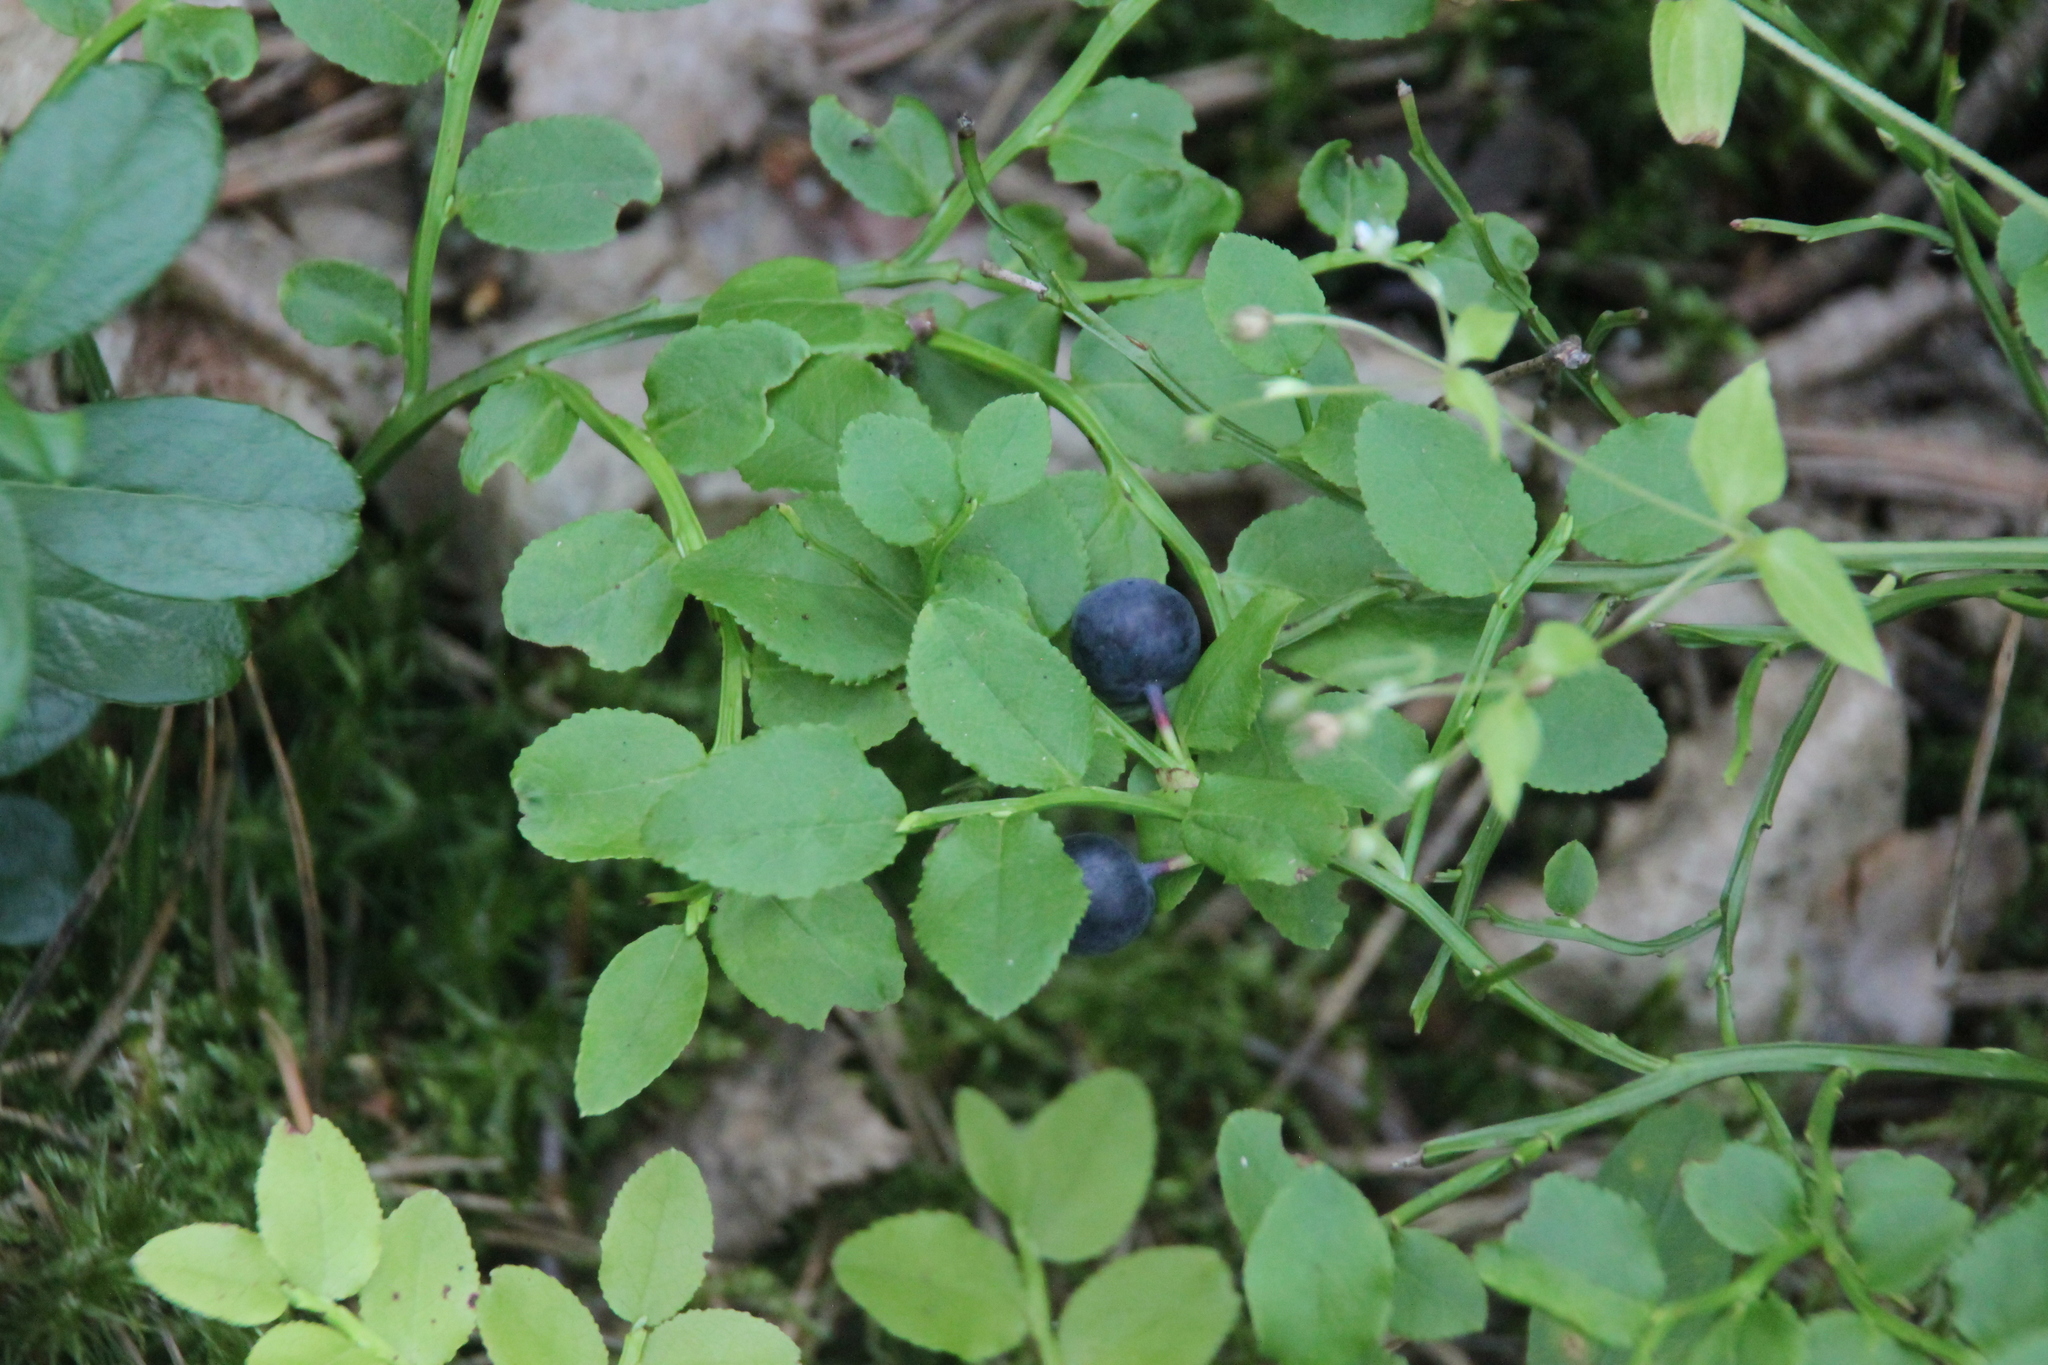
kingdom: Plantae
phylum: Tracheophyta
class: Magnoliopsida
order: Ericales
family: Ericaceae
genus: Vaccinium
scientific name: Vaccinium myrtillus
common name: Bilberry
